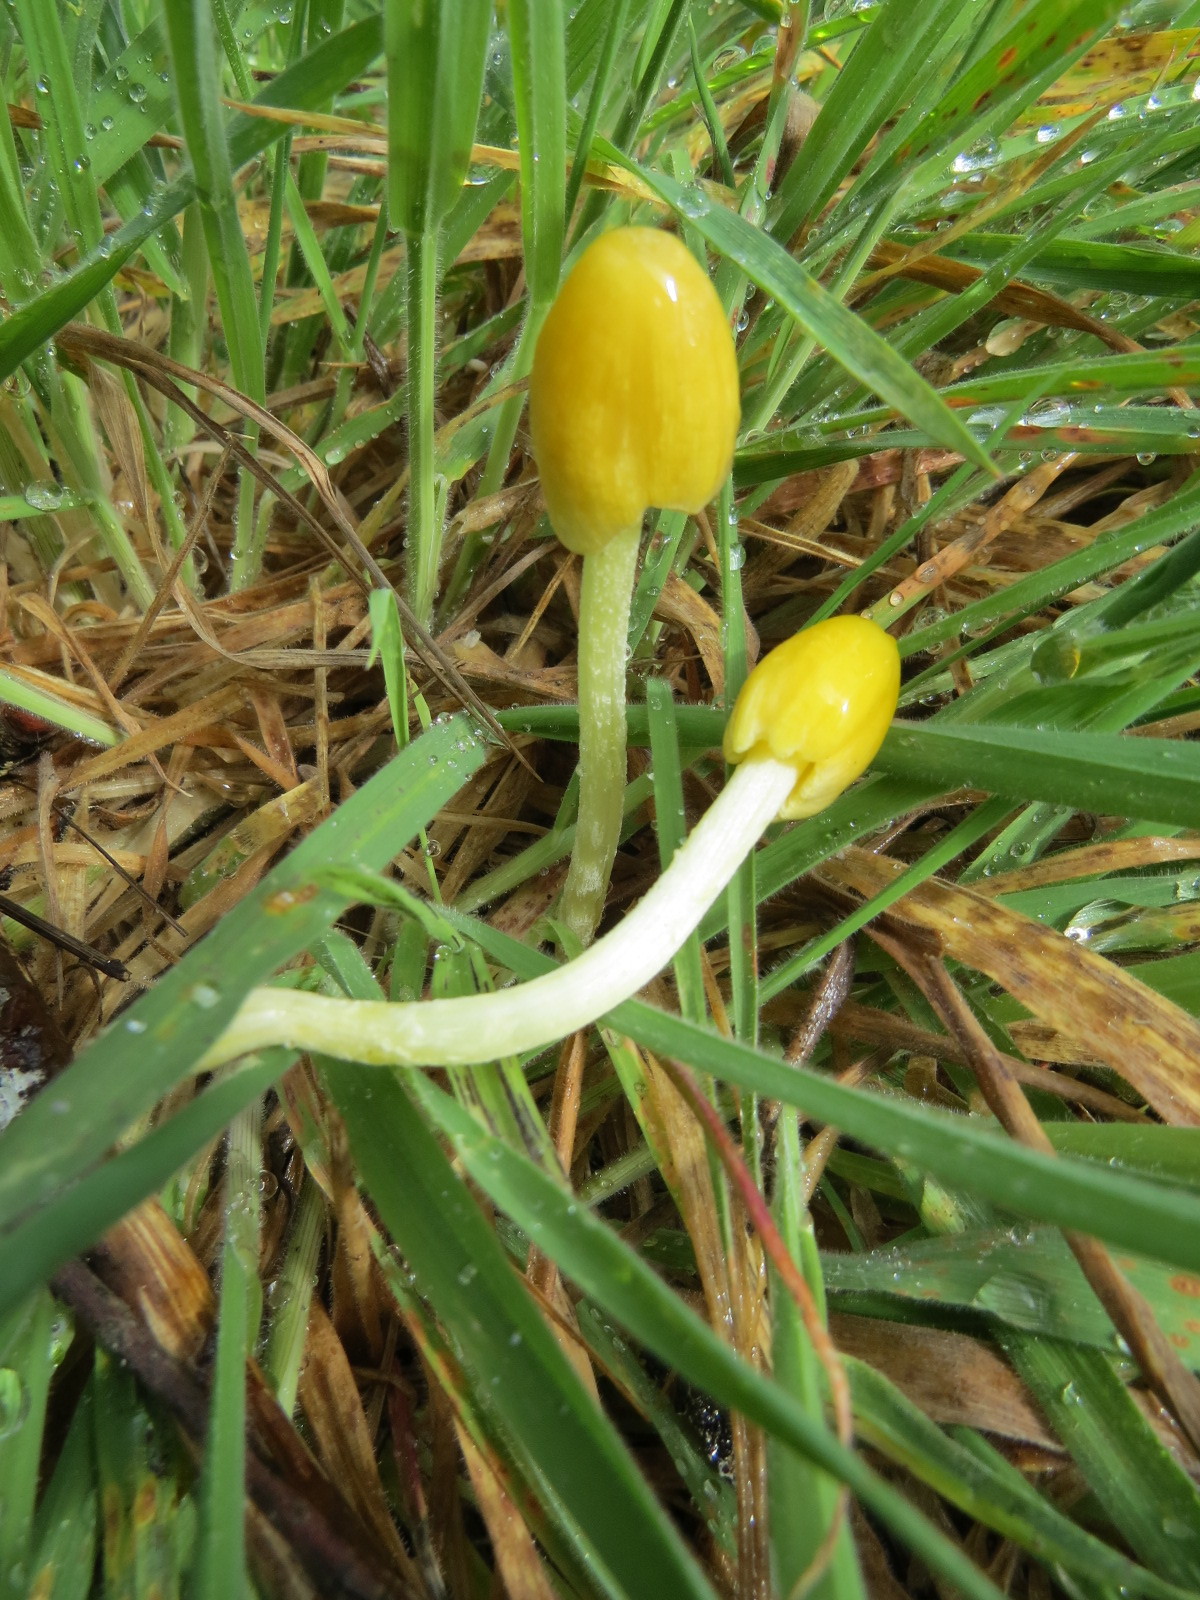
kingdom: Fungi
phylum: Basidiomycota
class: Agaricomycetes
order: Agaricales
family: Bolbitiaceae
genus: Bolbitius
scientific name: Bolbitius titubans
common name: Yellow fieldcap
